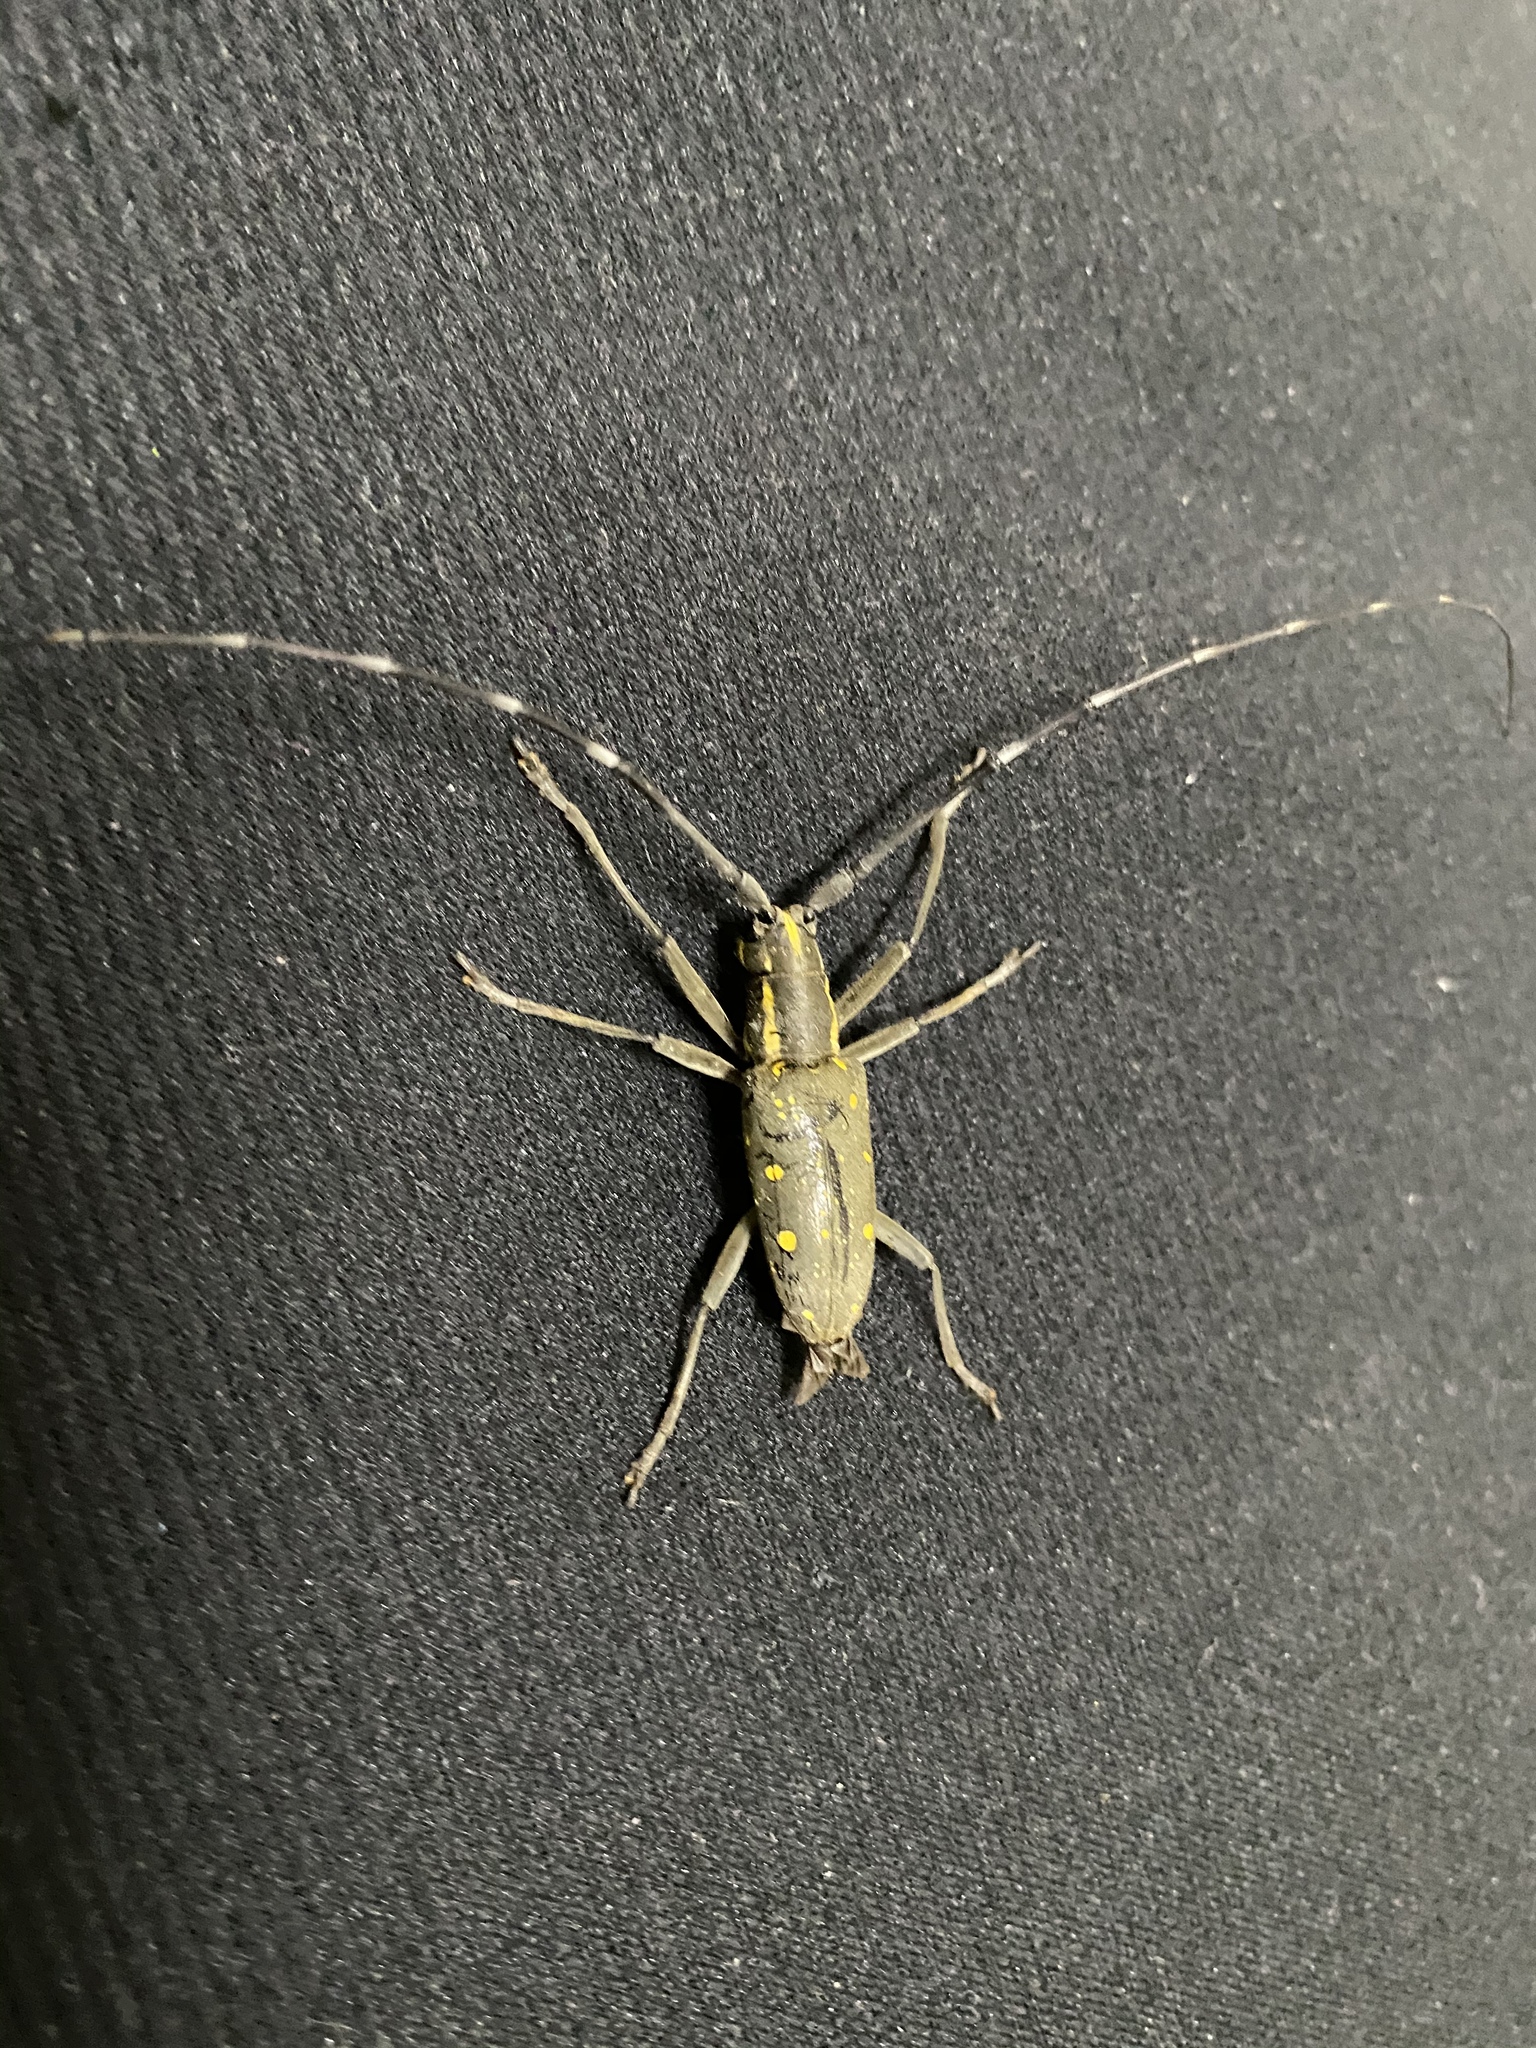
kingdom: Animalia
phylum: Arthropoda
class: Insecta
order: Coleoptera
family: Cerambycidae
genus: Psacothea
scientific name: Psacothea hilaris
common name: Yellow-spotted longicorn beetle
